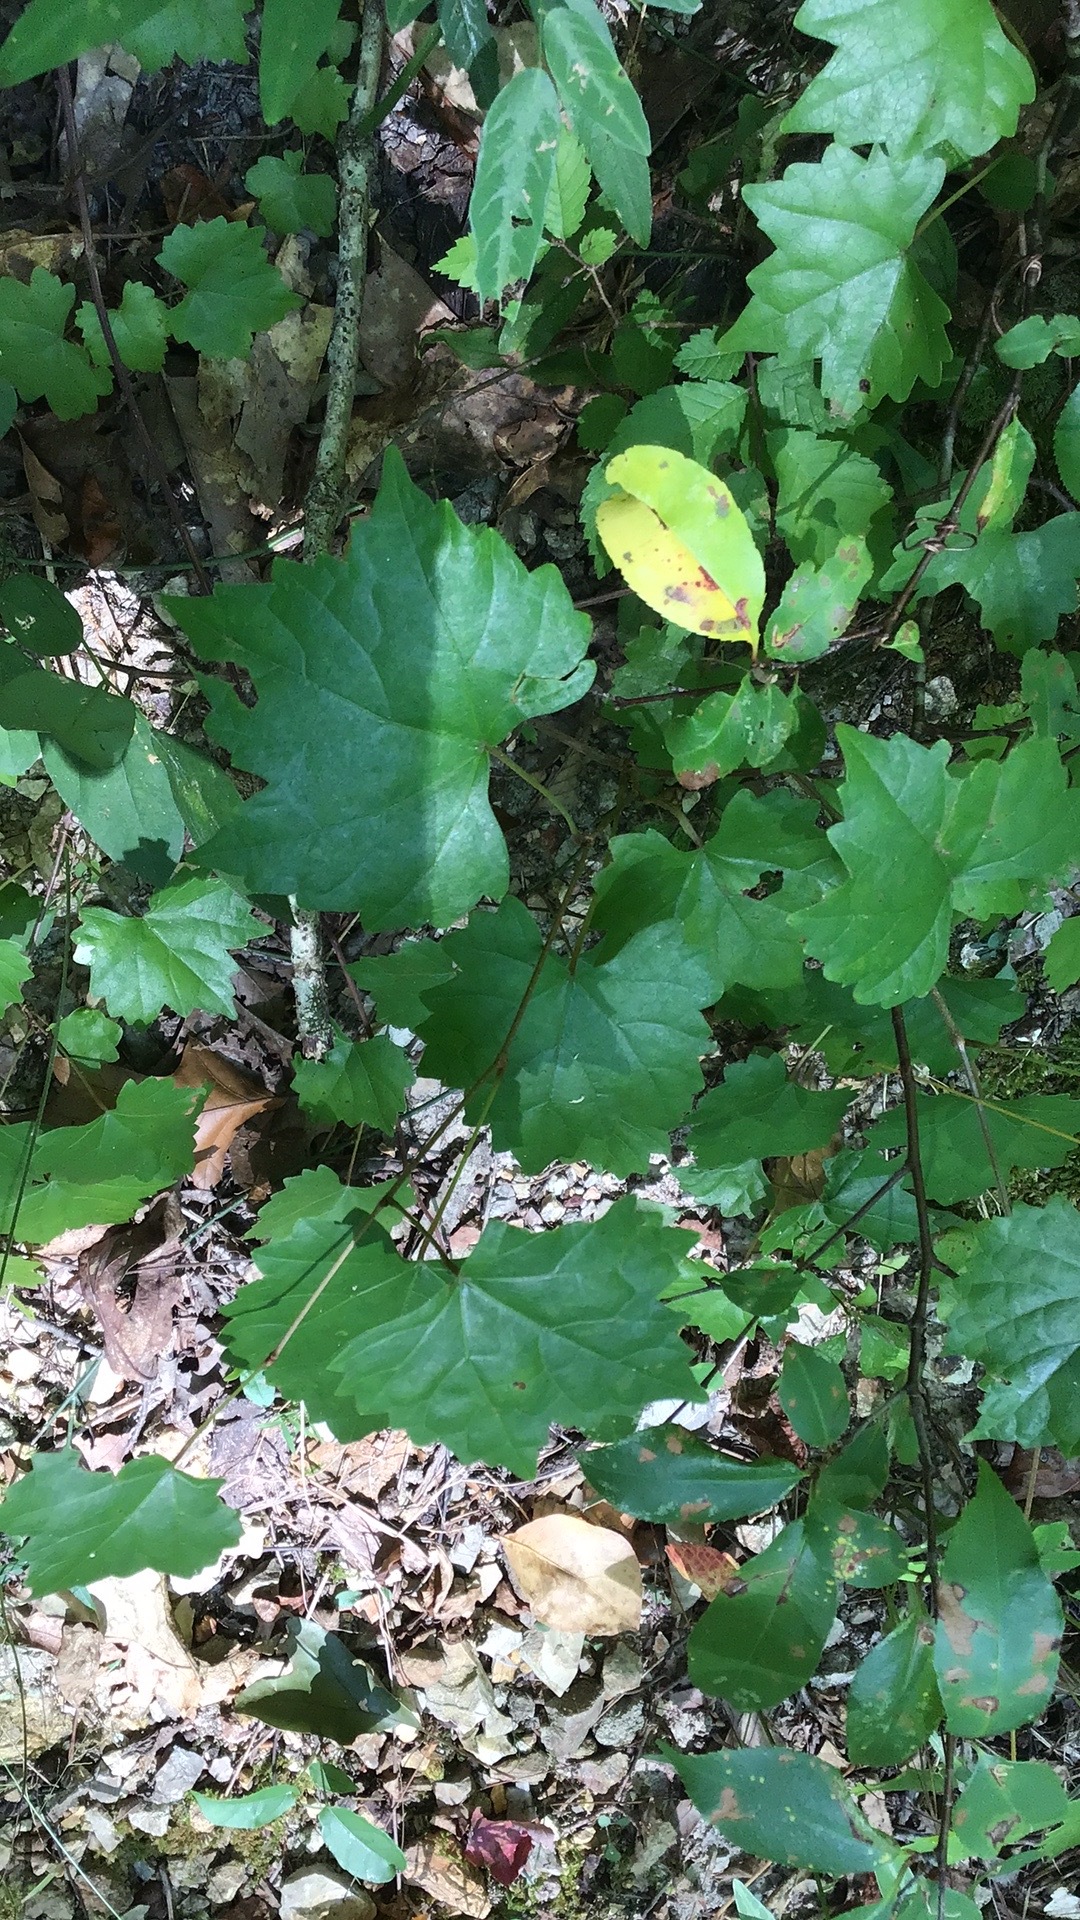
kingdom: Plantae
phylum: Tracheophyta
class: Magnoliopsida
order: Vitales
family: Vitaceae
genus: Vitis
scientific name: Vitis rotundifolia
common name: Muscadine grape
